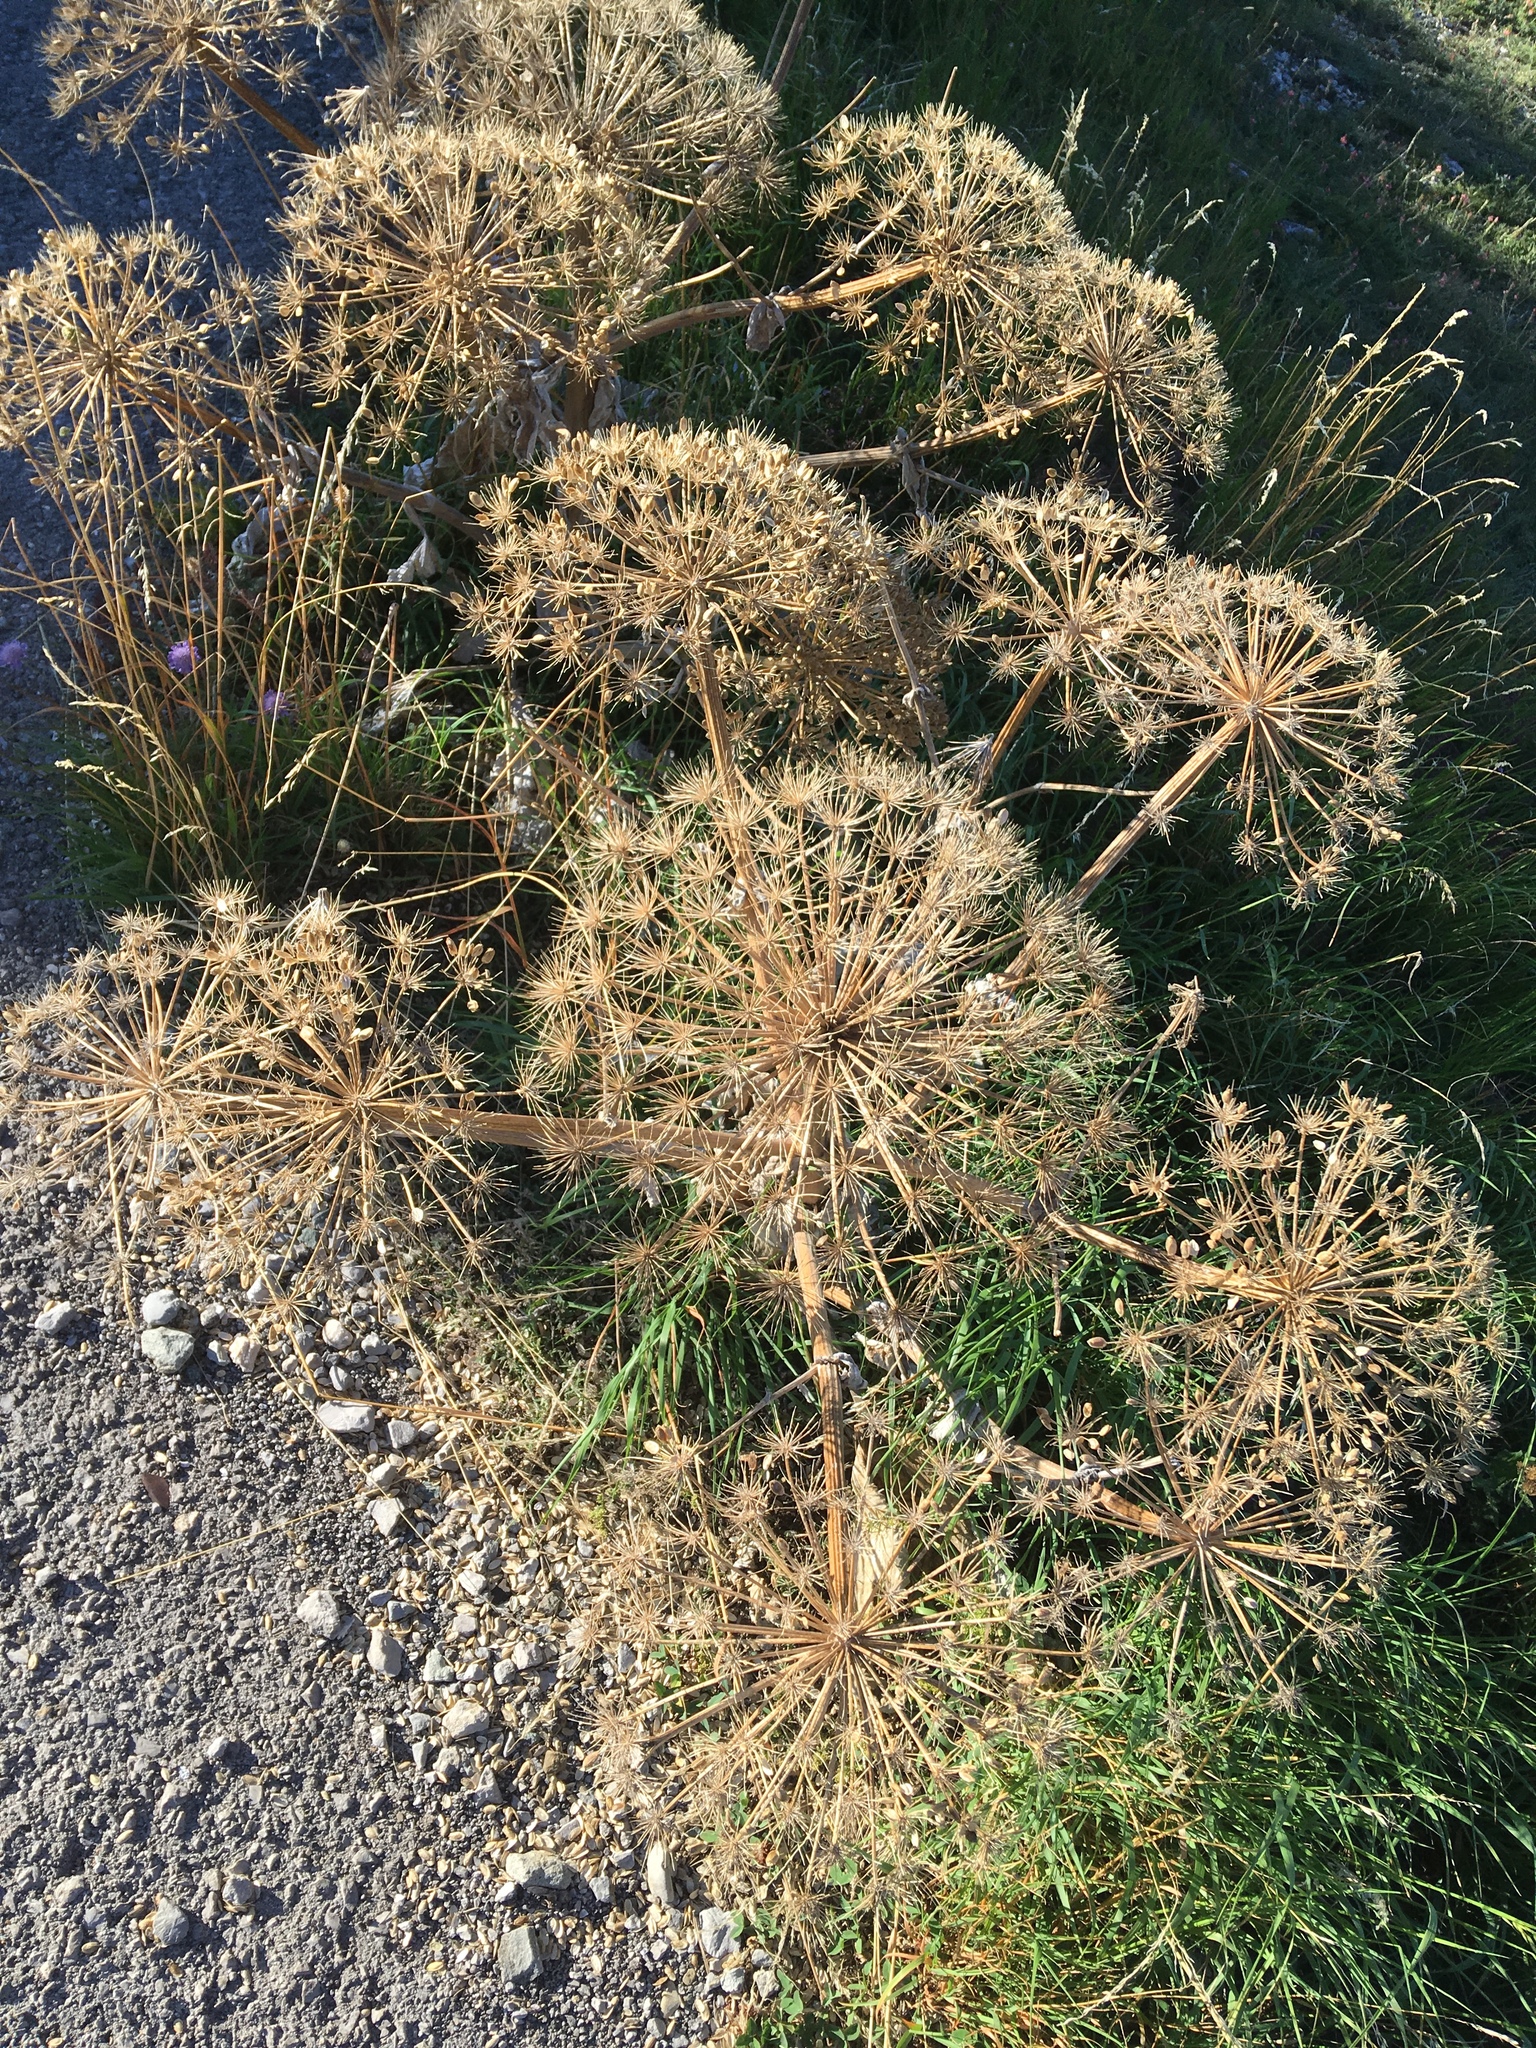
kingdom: Plantae
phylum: Tracheophyta
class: Magnoliopsida
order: Apiales
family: Apiaceae
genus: Heracleum
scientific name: Heracleum stevenii
